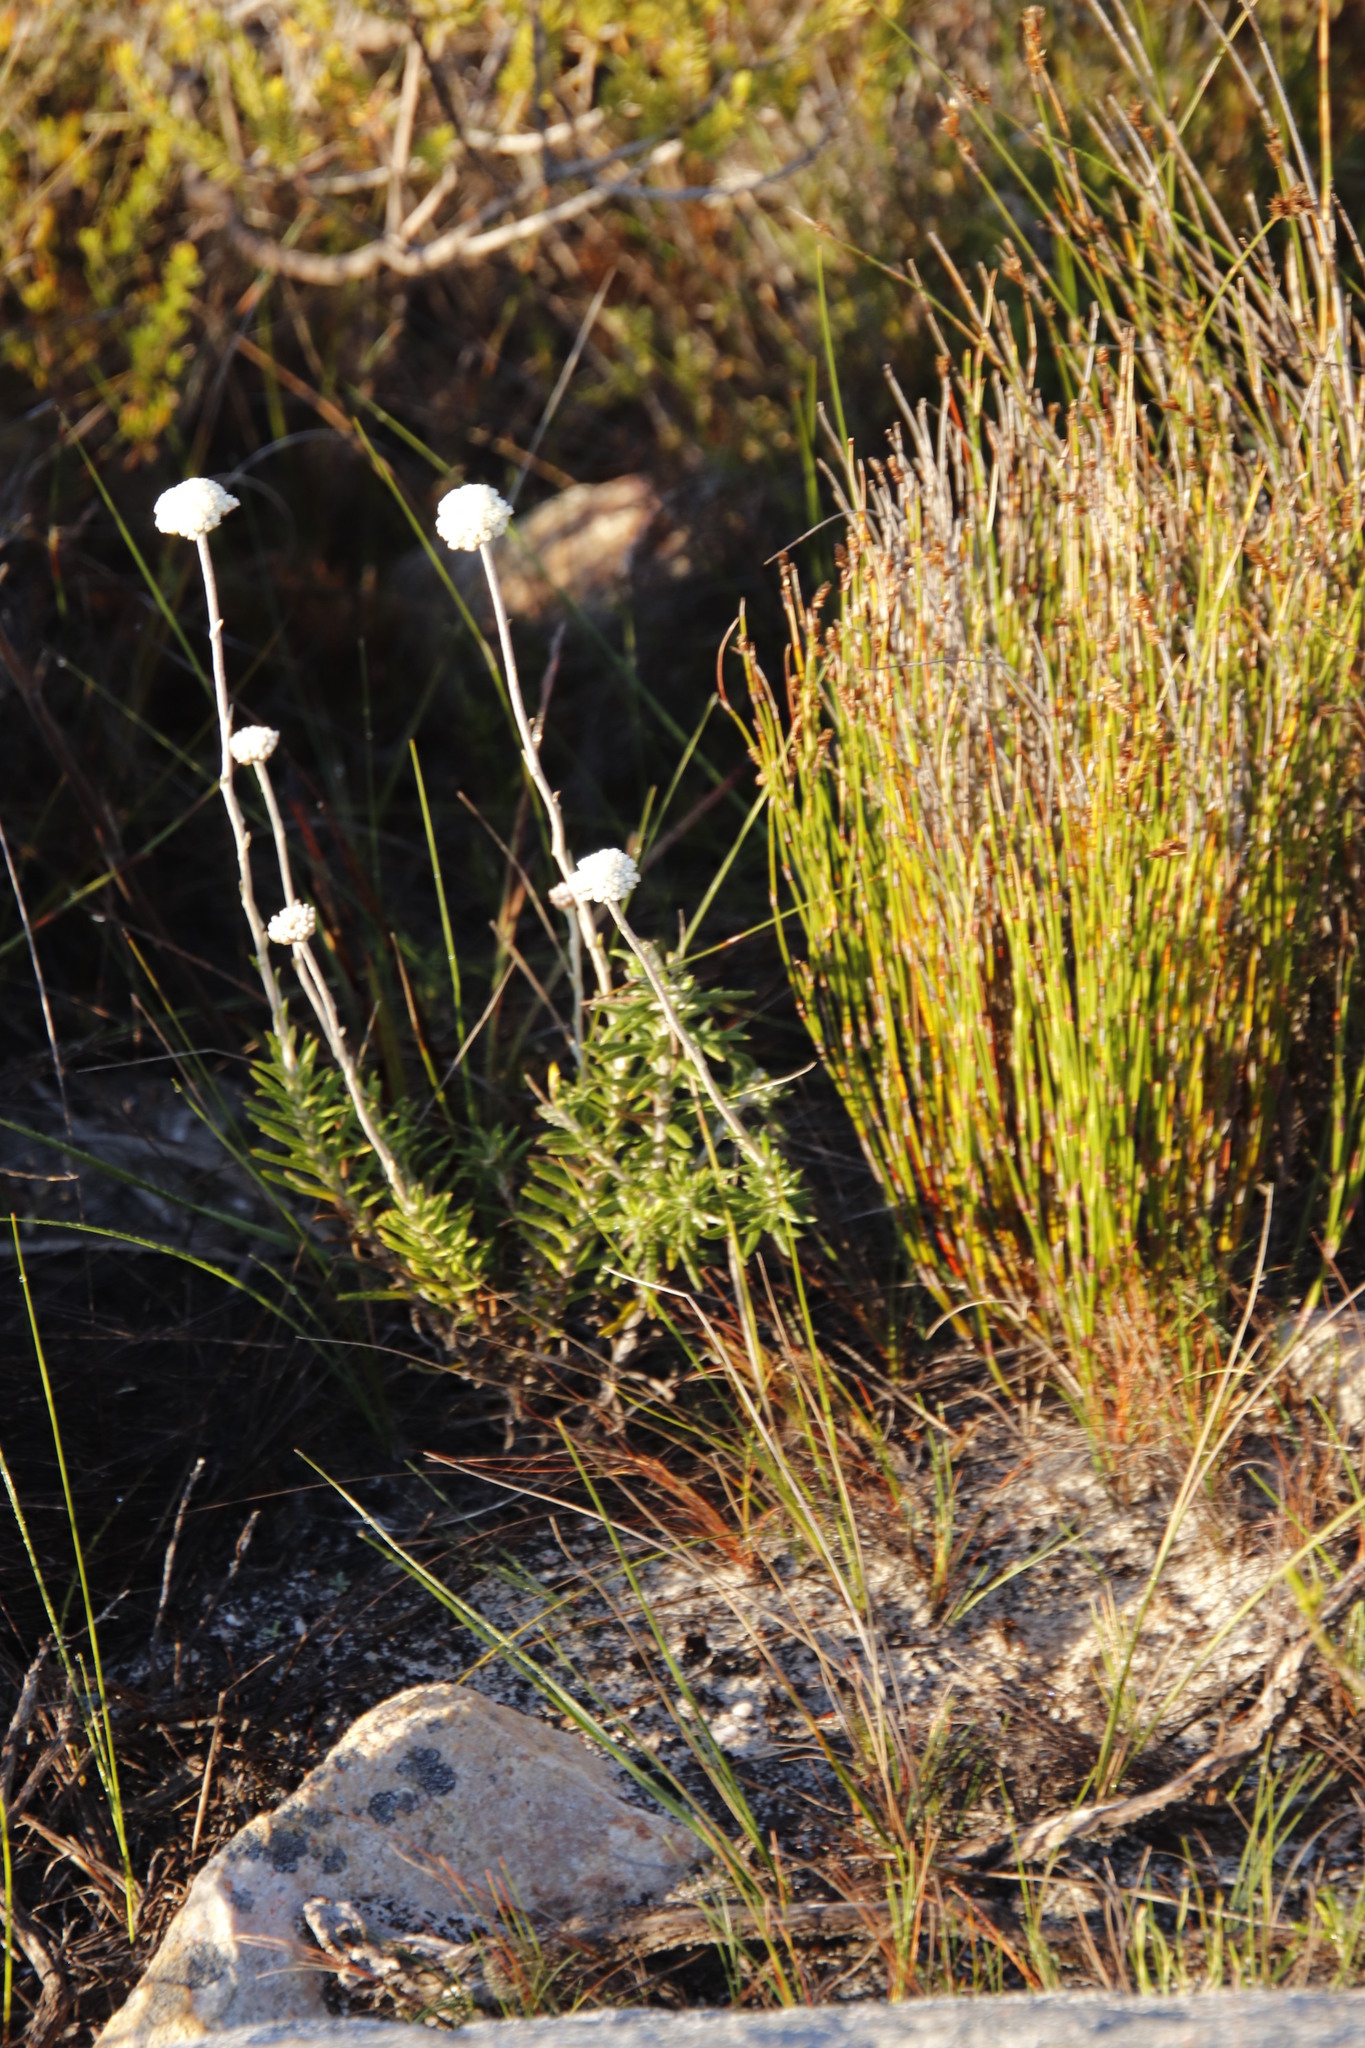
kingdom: Plantae
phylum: Tracheophyta
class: Magnoliopsida
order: Asterales
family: Asteraceae
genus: Anaxeton
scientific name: Anaxeton laeve
